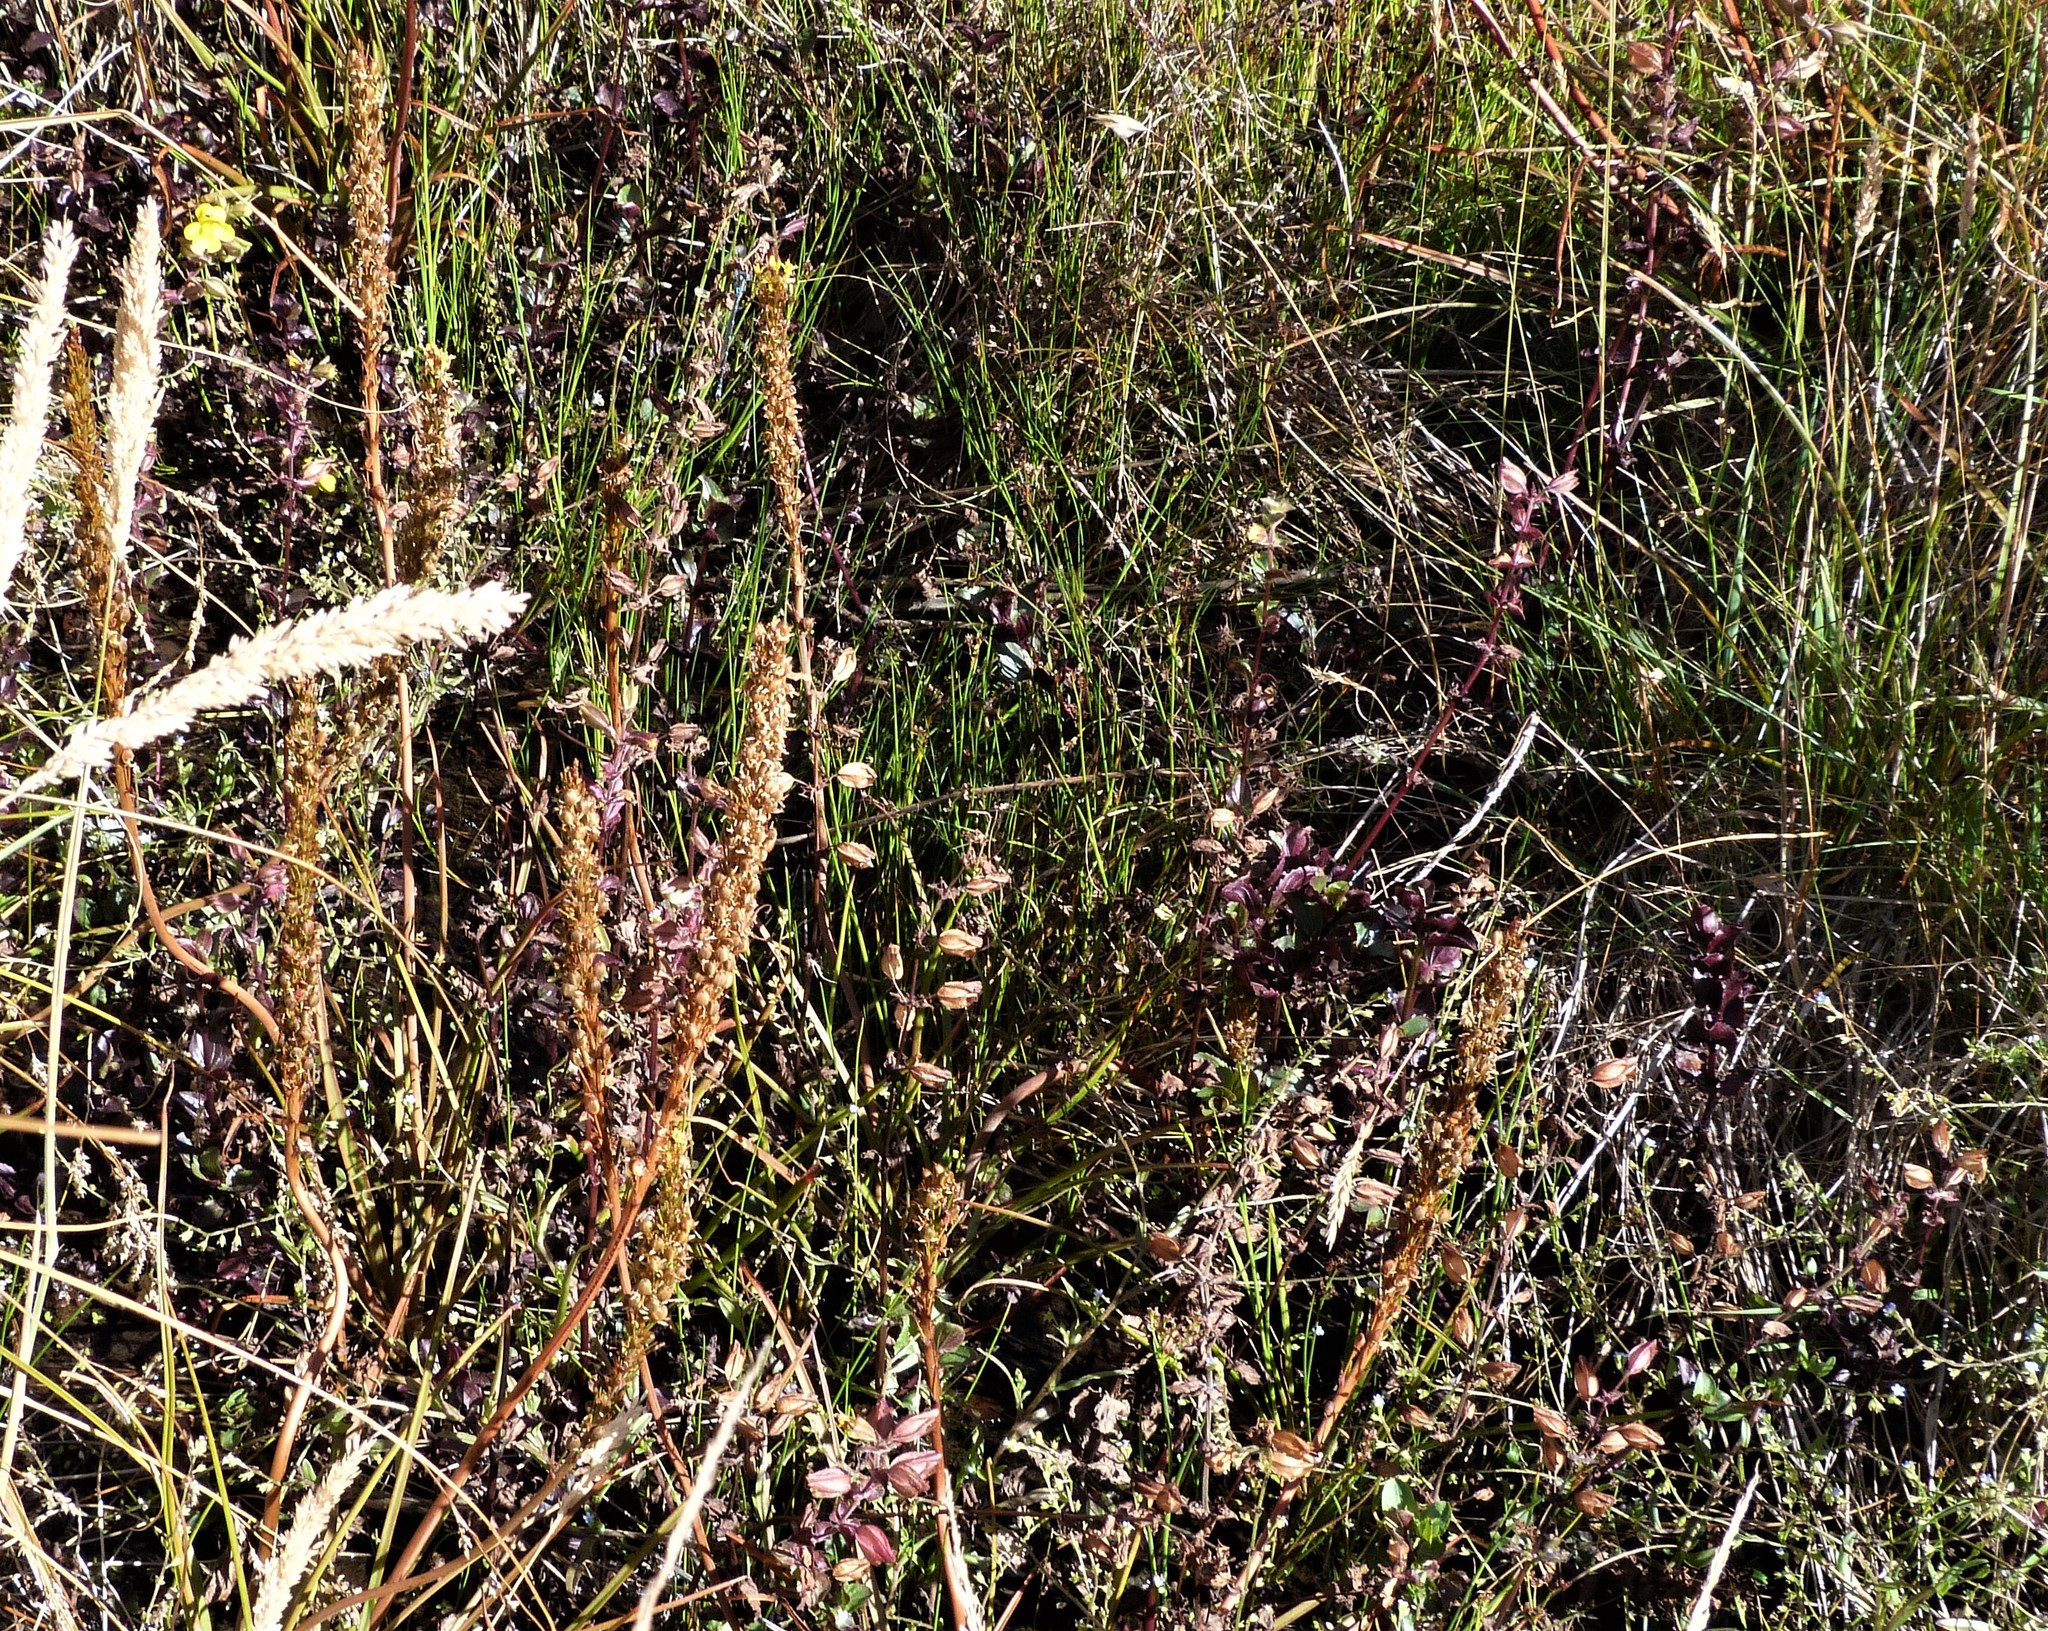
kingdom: Plantae
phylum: Tracheophyta
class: Liliopsida
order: Asparagales
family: Asphodelaceae
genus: Bulbinella
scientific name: Bulbinella angustifolia
